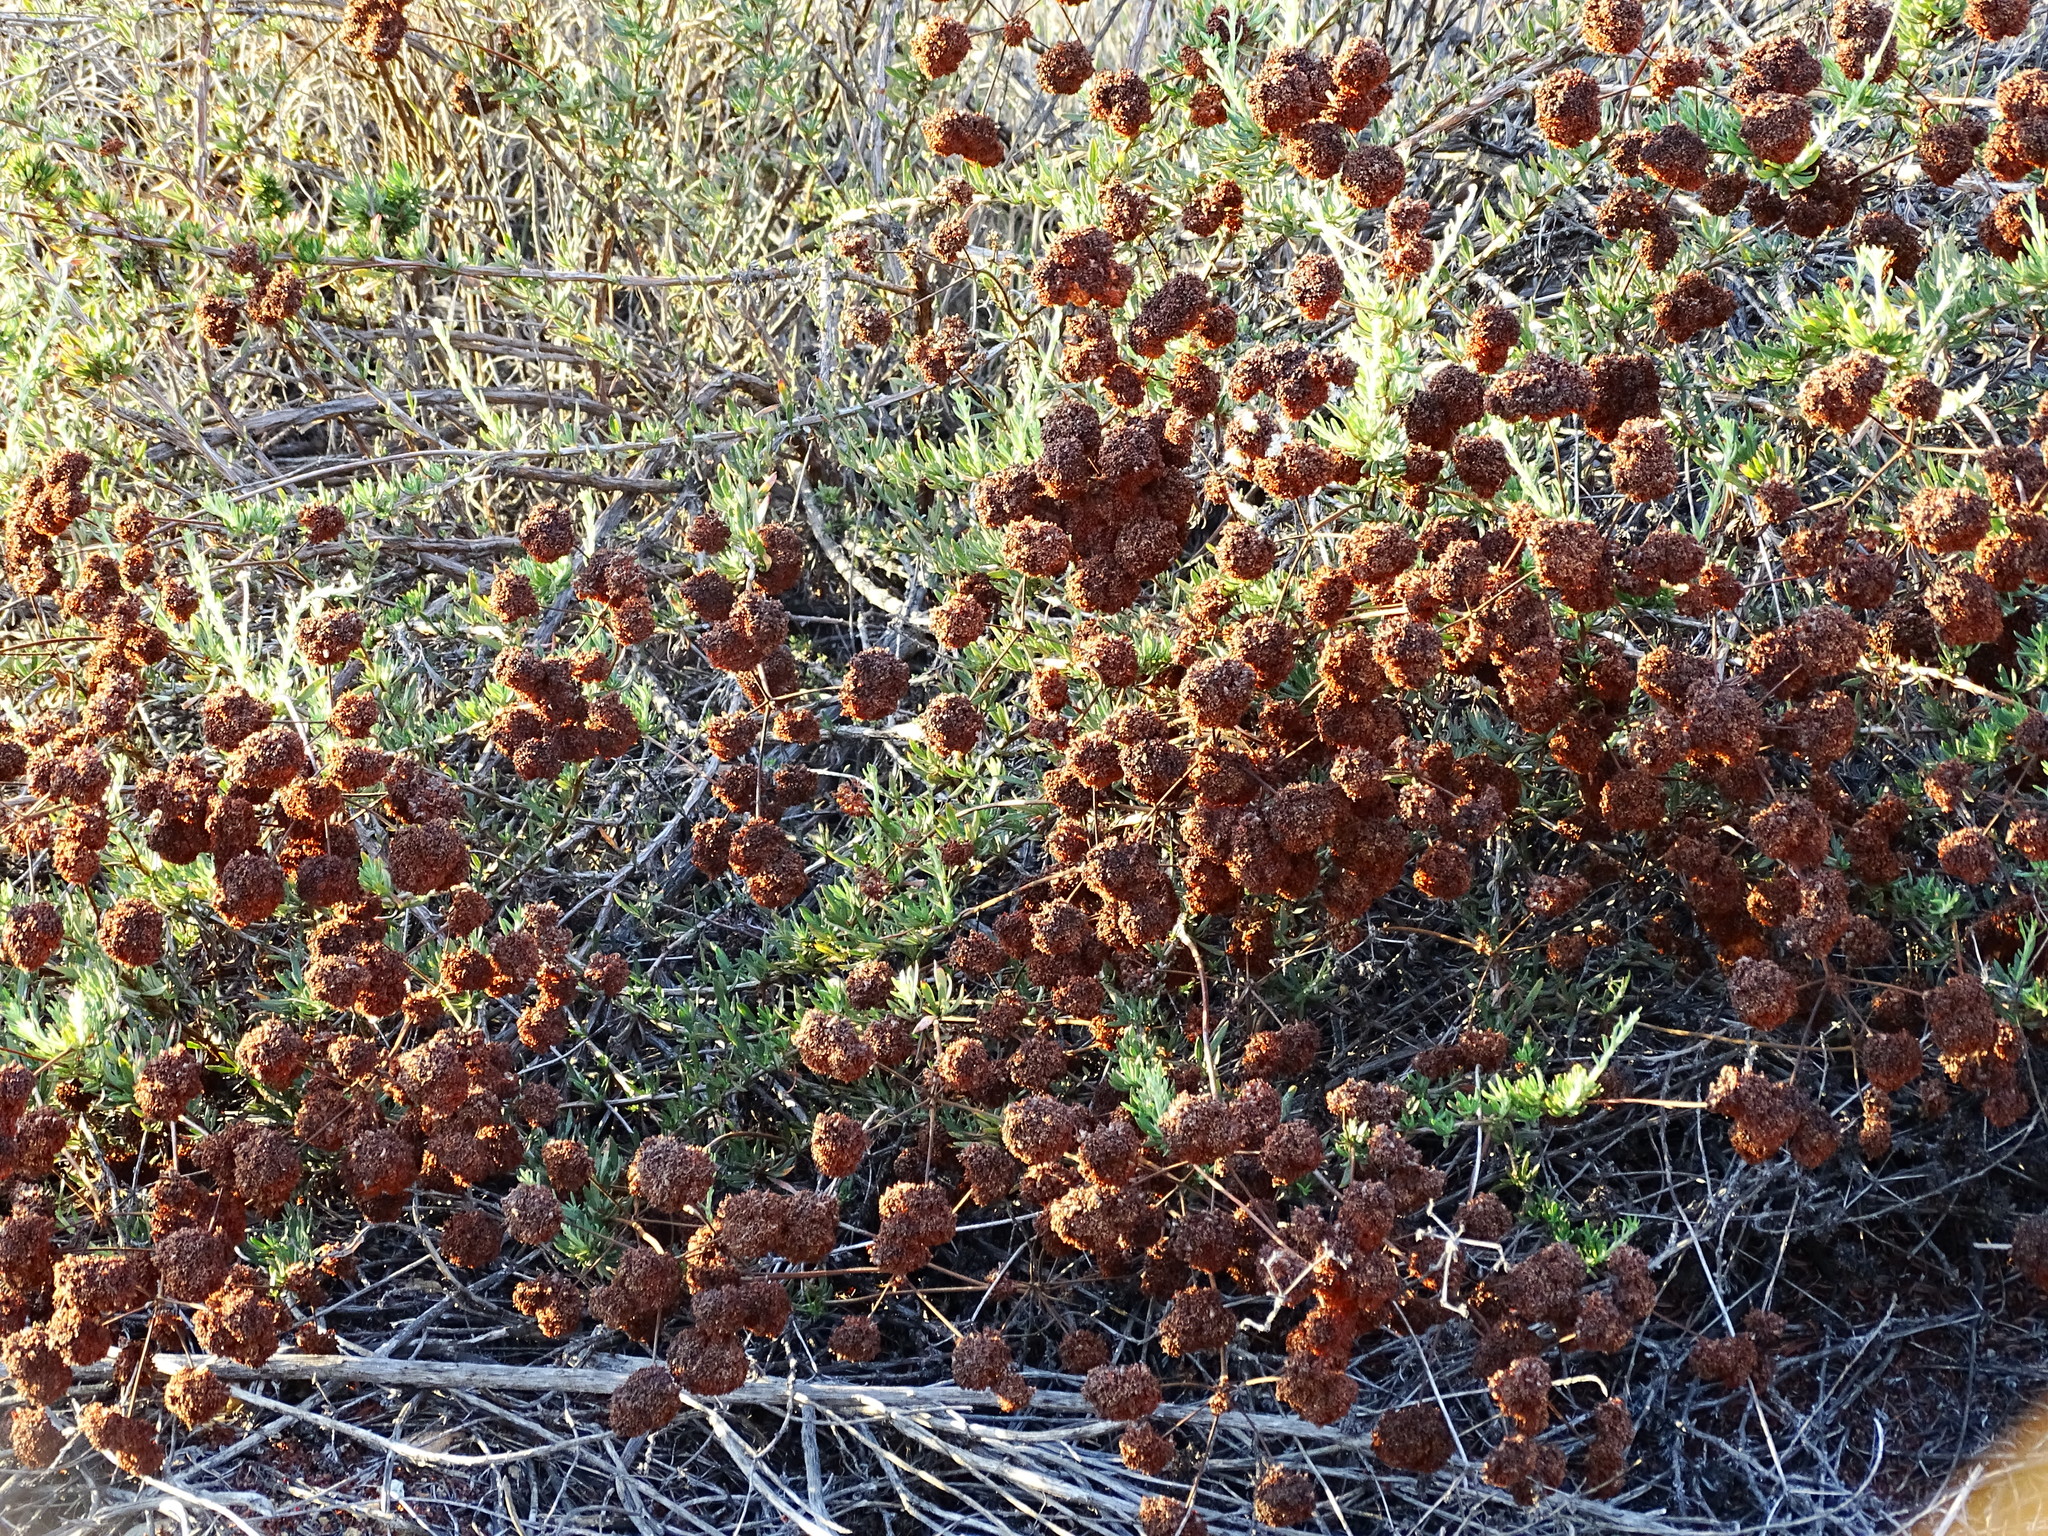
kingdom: Plantae
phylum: Tracheophyta
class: Magnoliopsida
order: Caryophyllales
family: Polygonaceae
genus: Eriogonum
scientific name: Eriogonum fasciculatum
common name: California wild buckwheat
